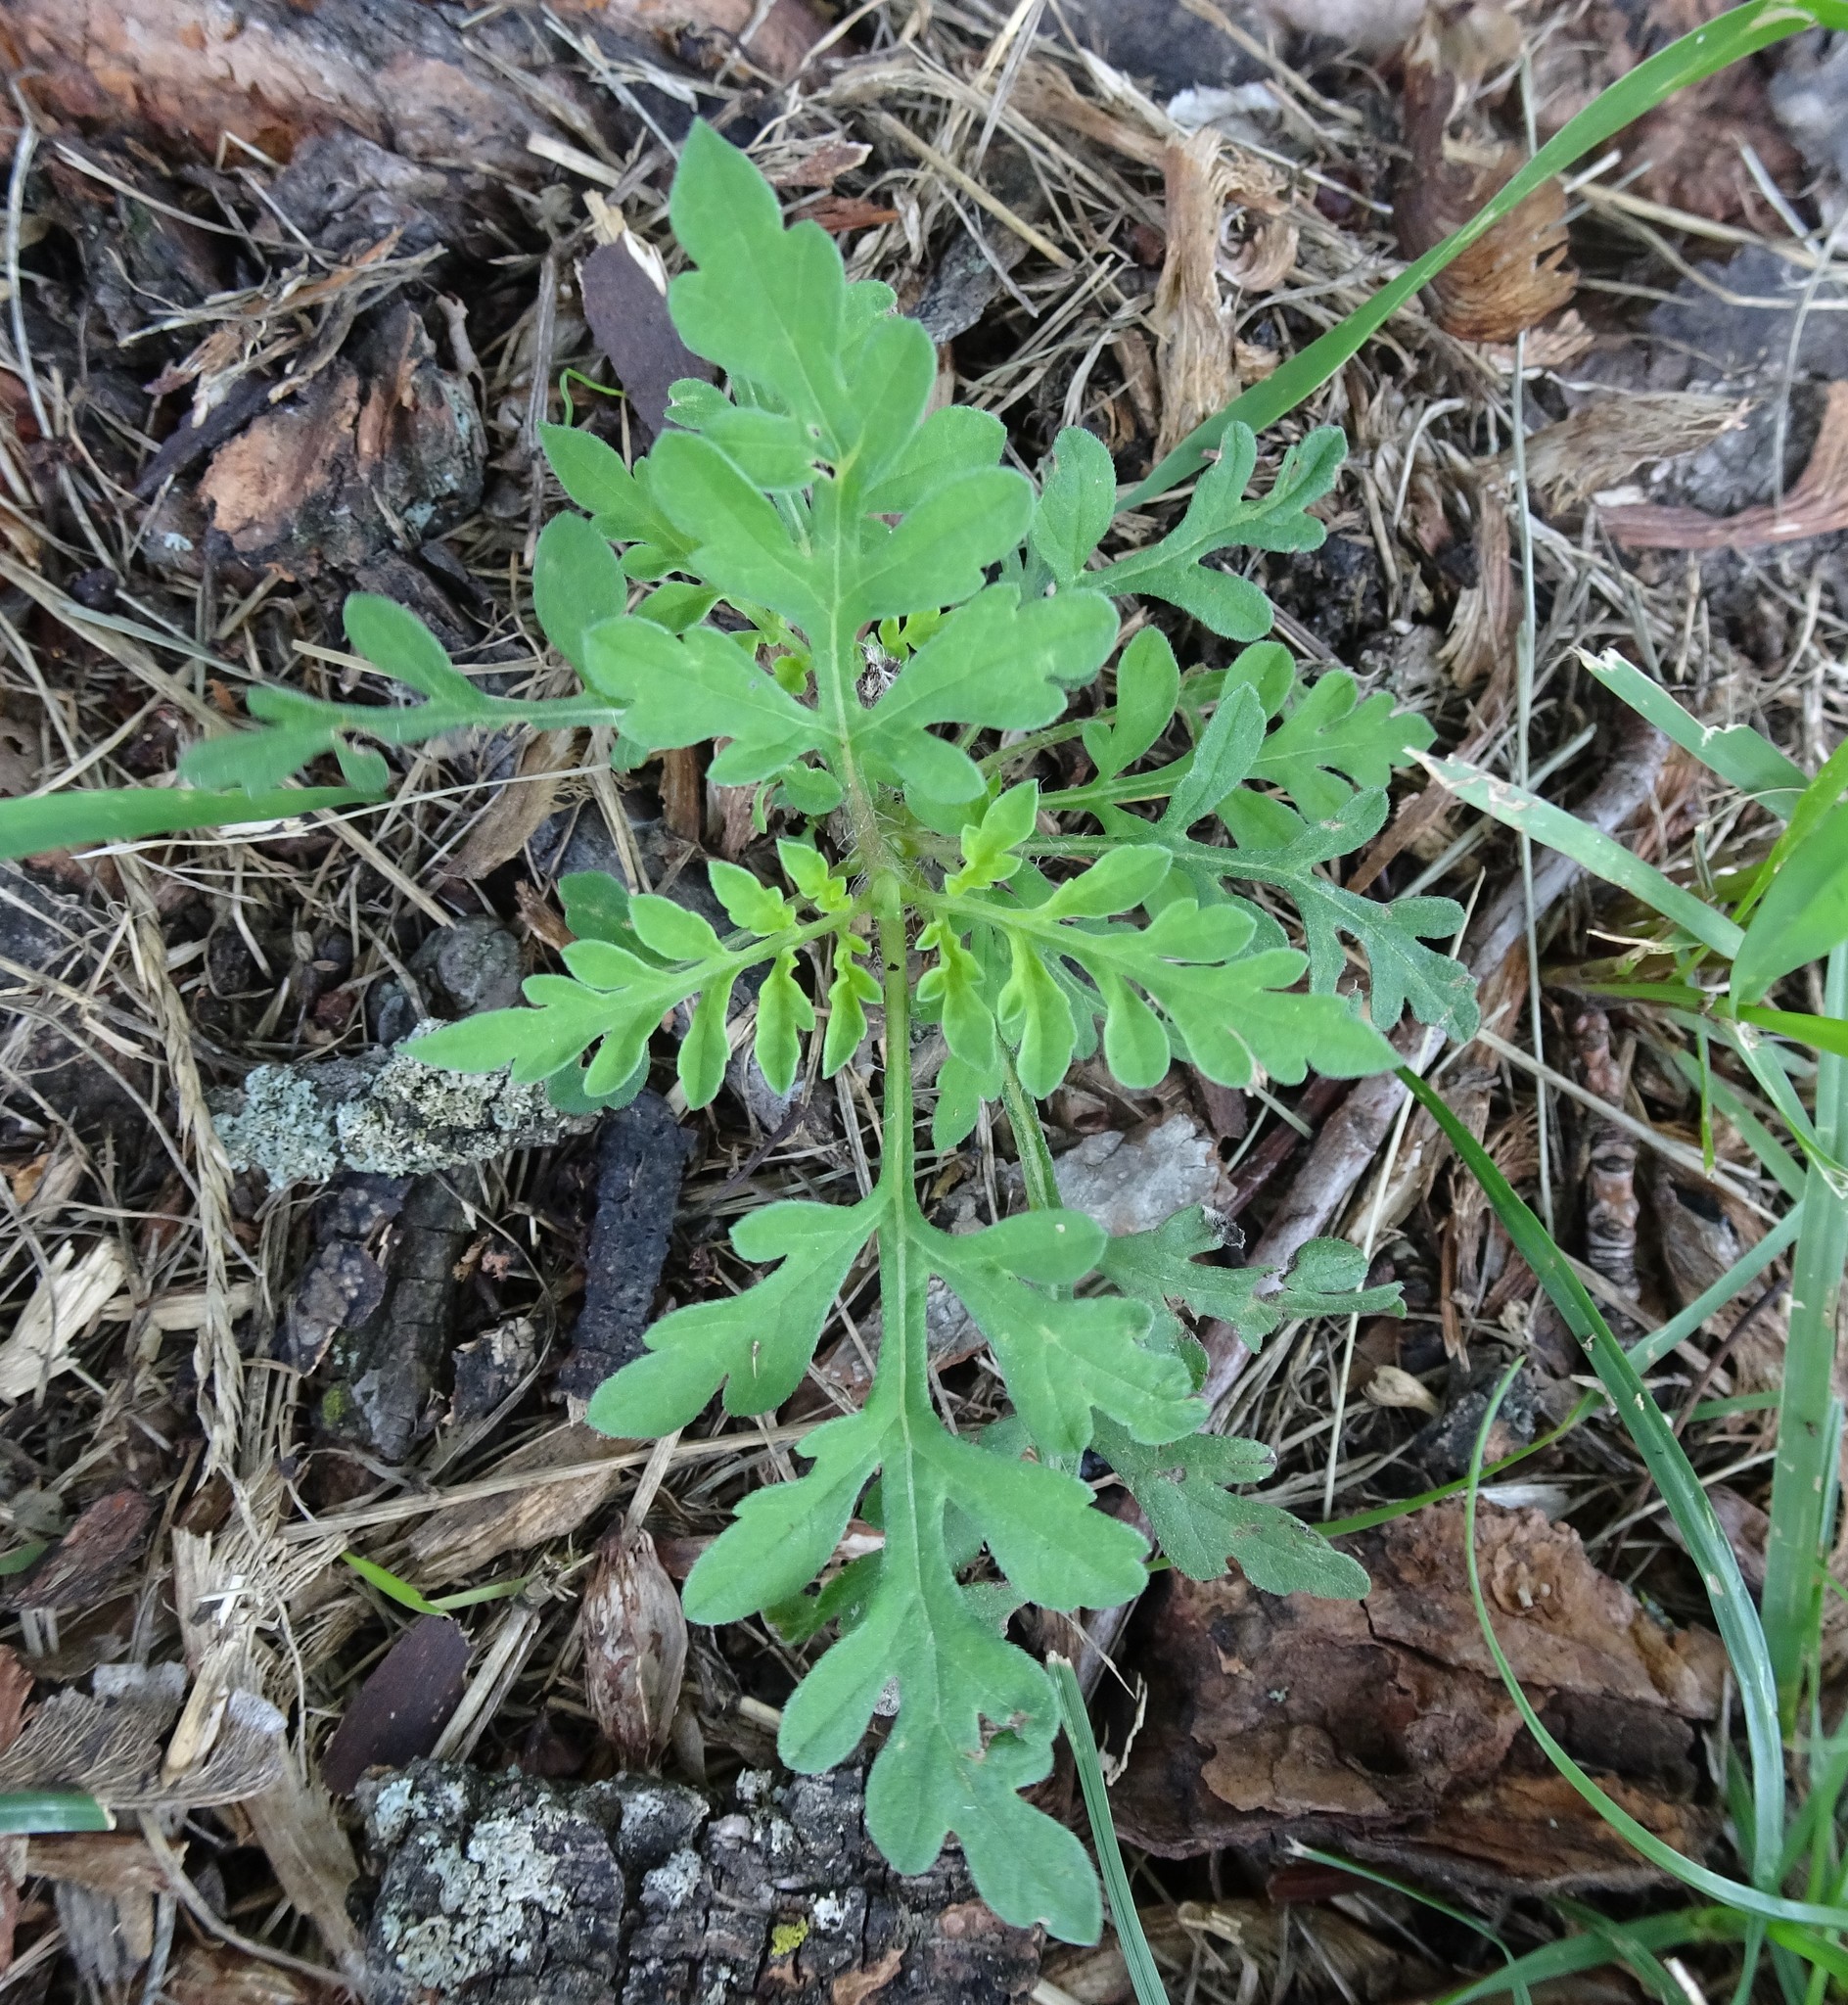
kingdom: Plantae
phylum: Tracheophyta
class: Magnoliopsida
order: Asterales
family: Asteraceae
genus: Ambrosia
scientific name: Ambrosia artemisiifolia
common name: Annual ragweed
